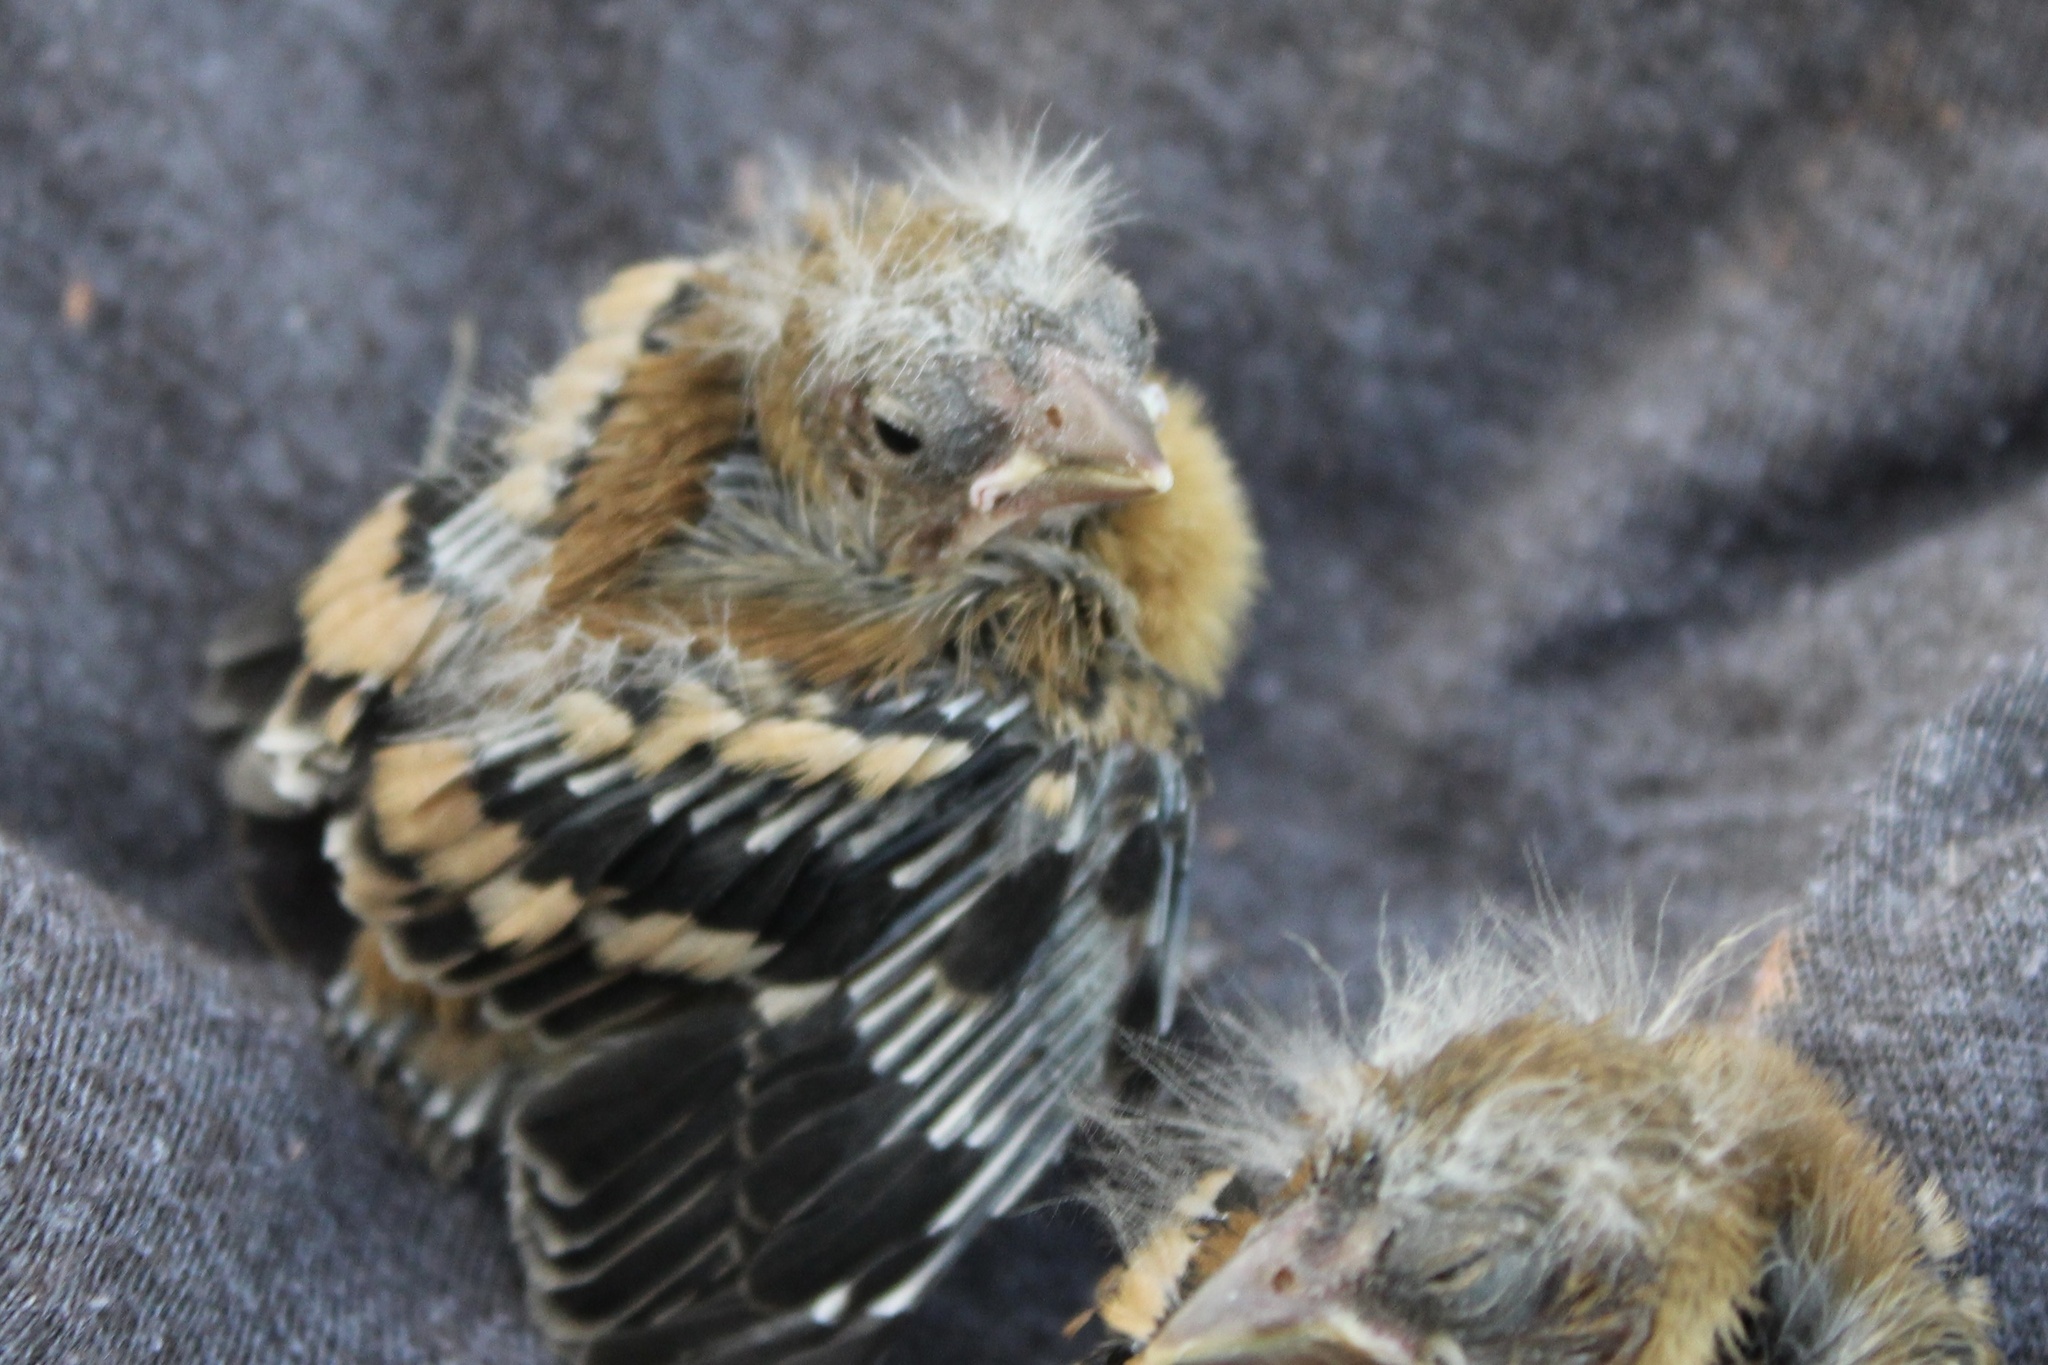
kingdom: Animalia
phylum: Chordata
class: Aves
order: Passeriformes
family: Fringillidae
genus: Spinus
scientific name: Spinus tristis
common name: American goldfinch
